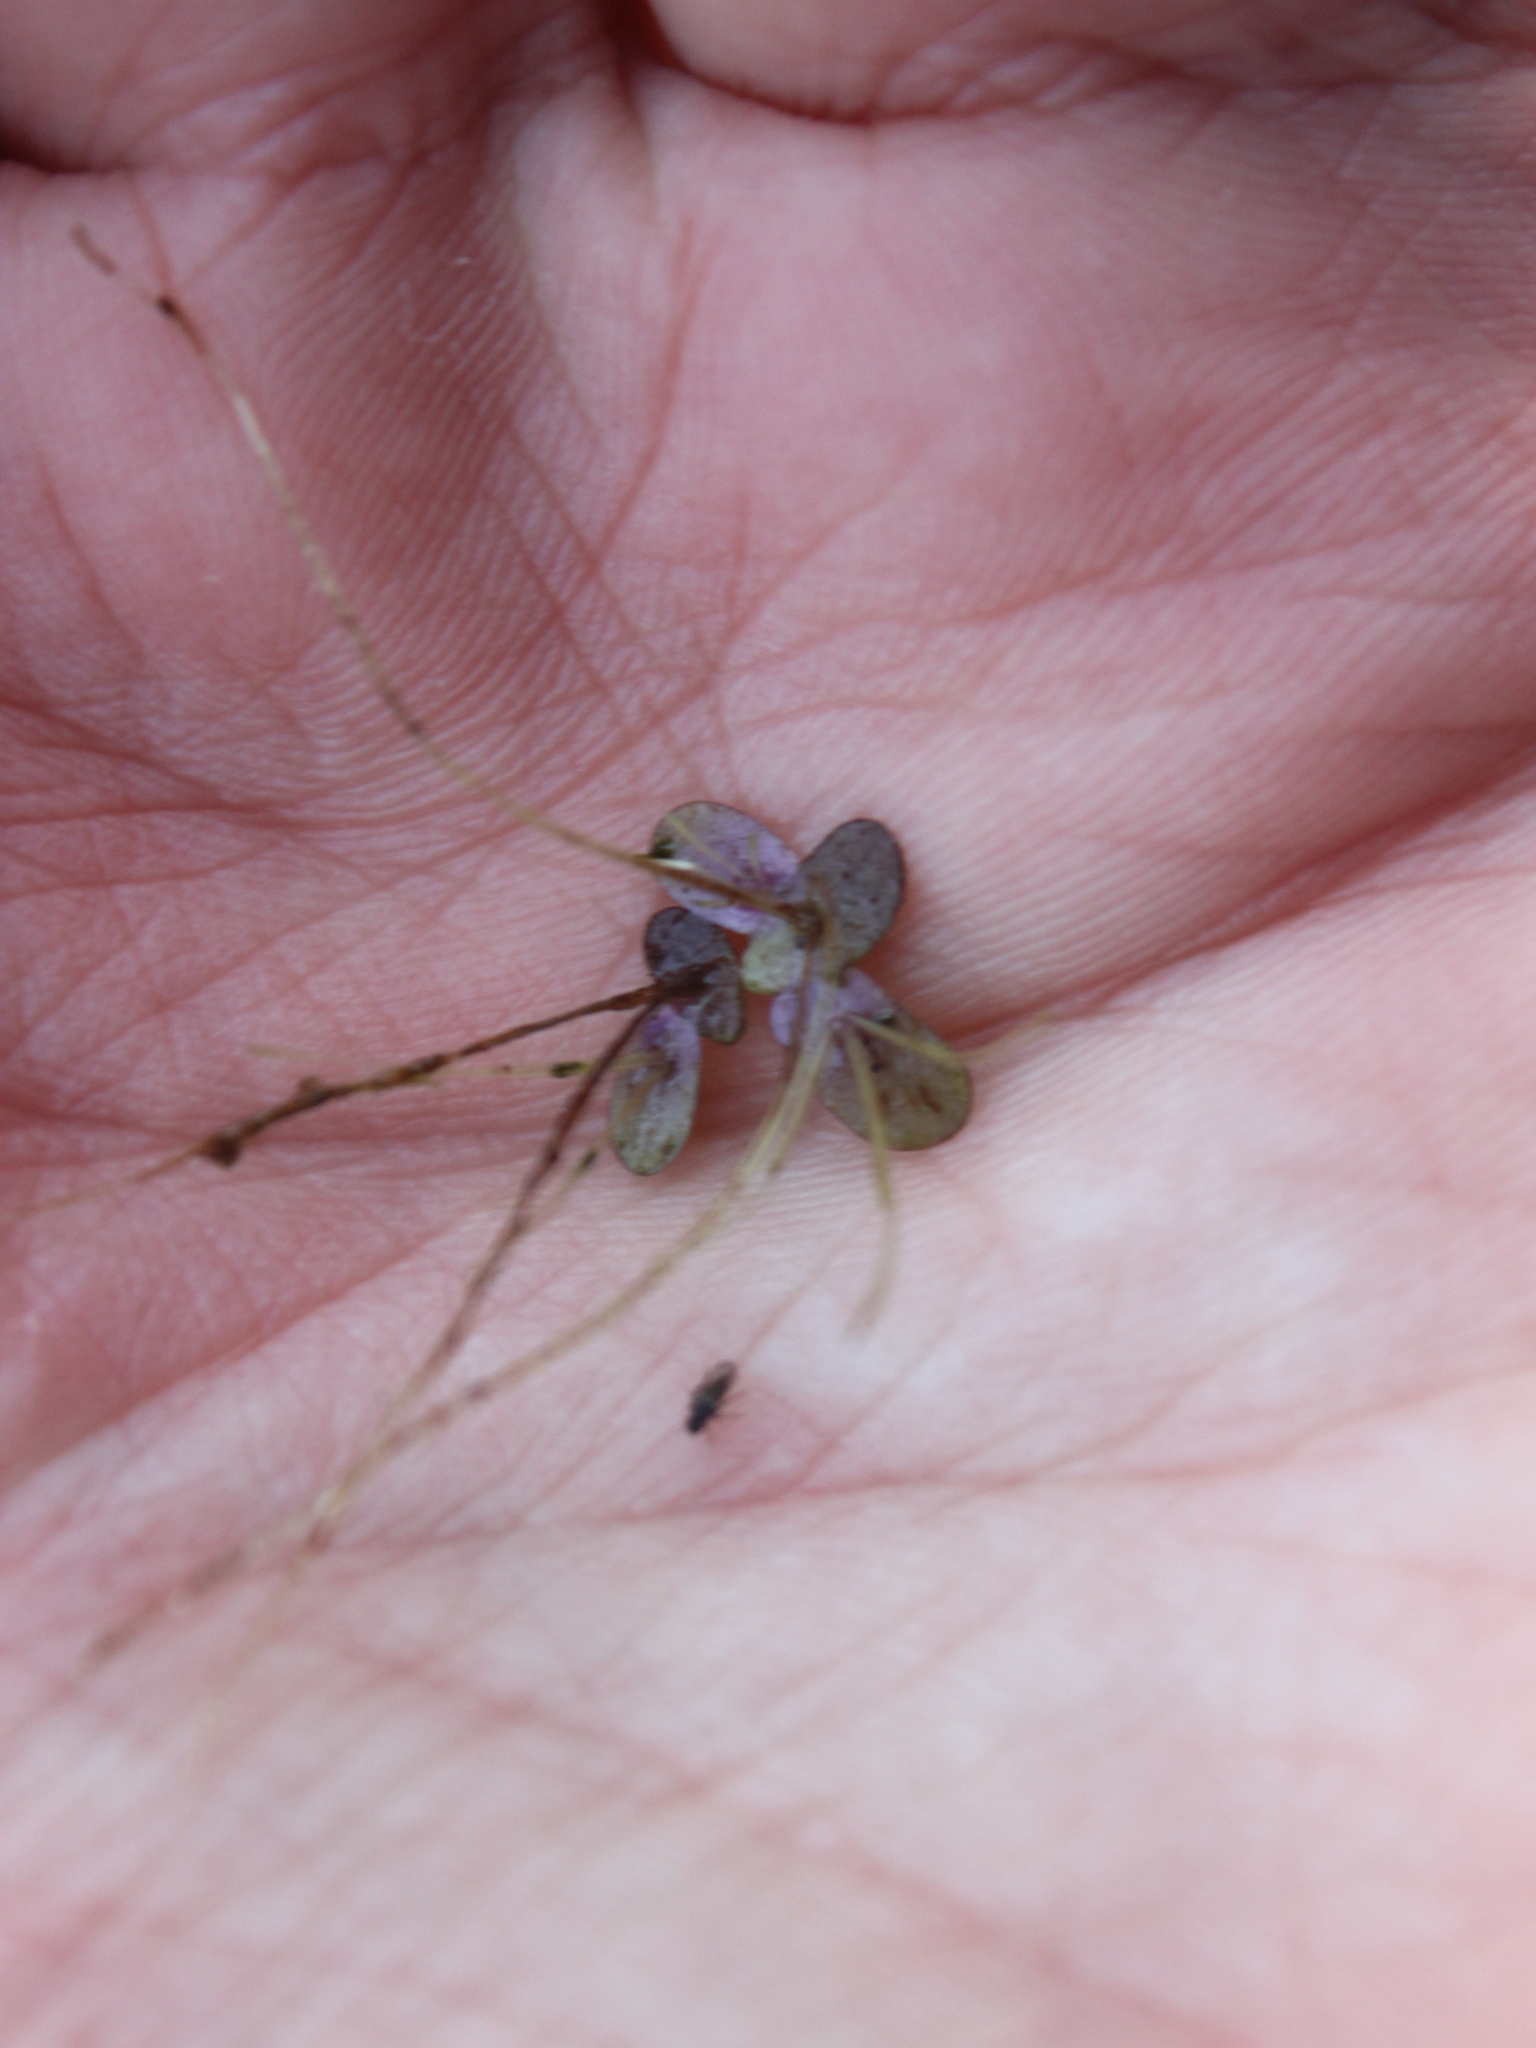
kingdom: Plantae
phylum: Tracheophyta
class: Liliopsida
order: Alismatales
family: Araceae
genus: Spirodela
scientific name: Spirodela punctata
